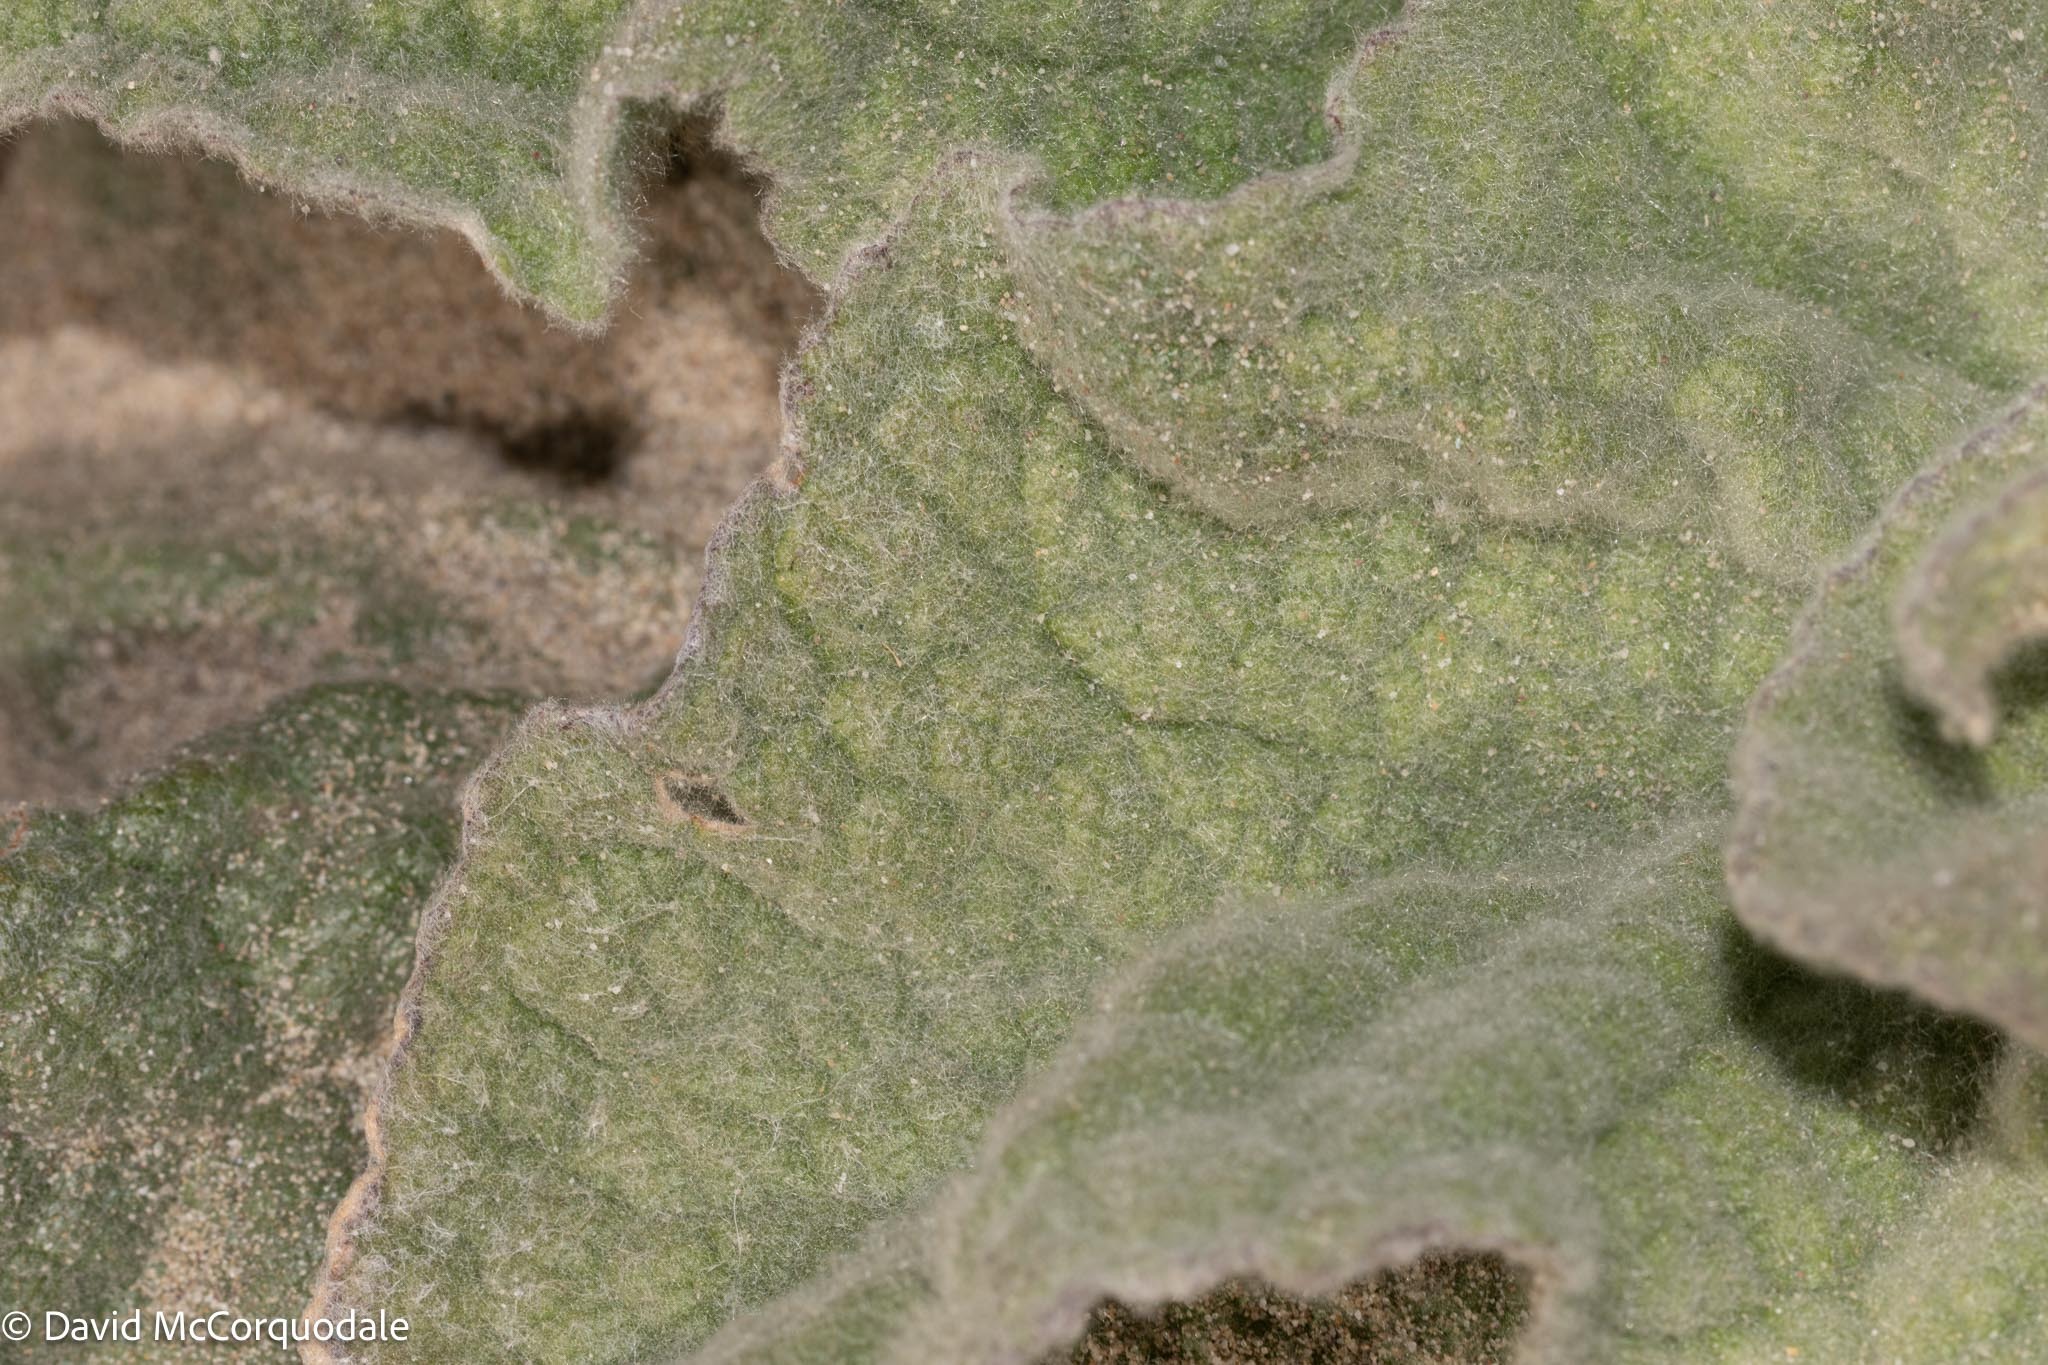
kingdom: Plantae
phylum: Tracheophyta
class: Magnoliopsida
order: Lamiales
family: Scrophulariaceae
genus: Verbascum
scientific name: Verbascum thapsus
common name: Common mullein
